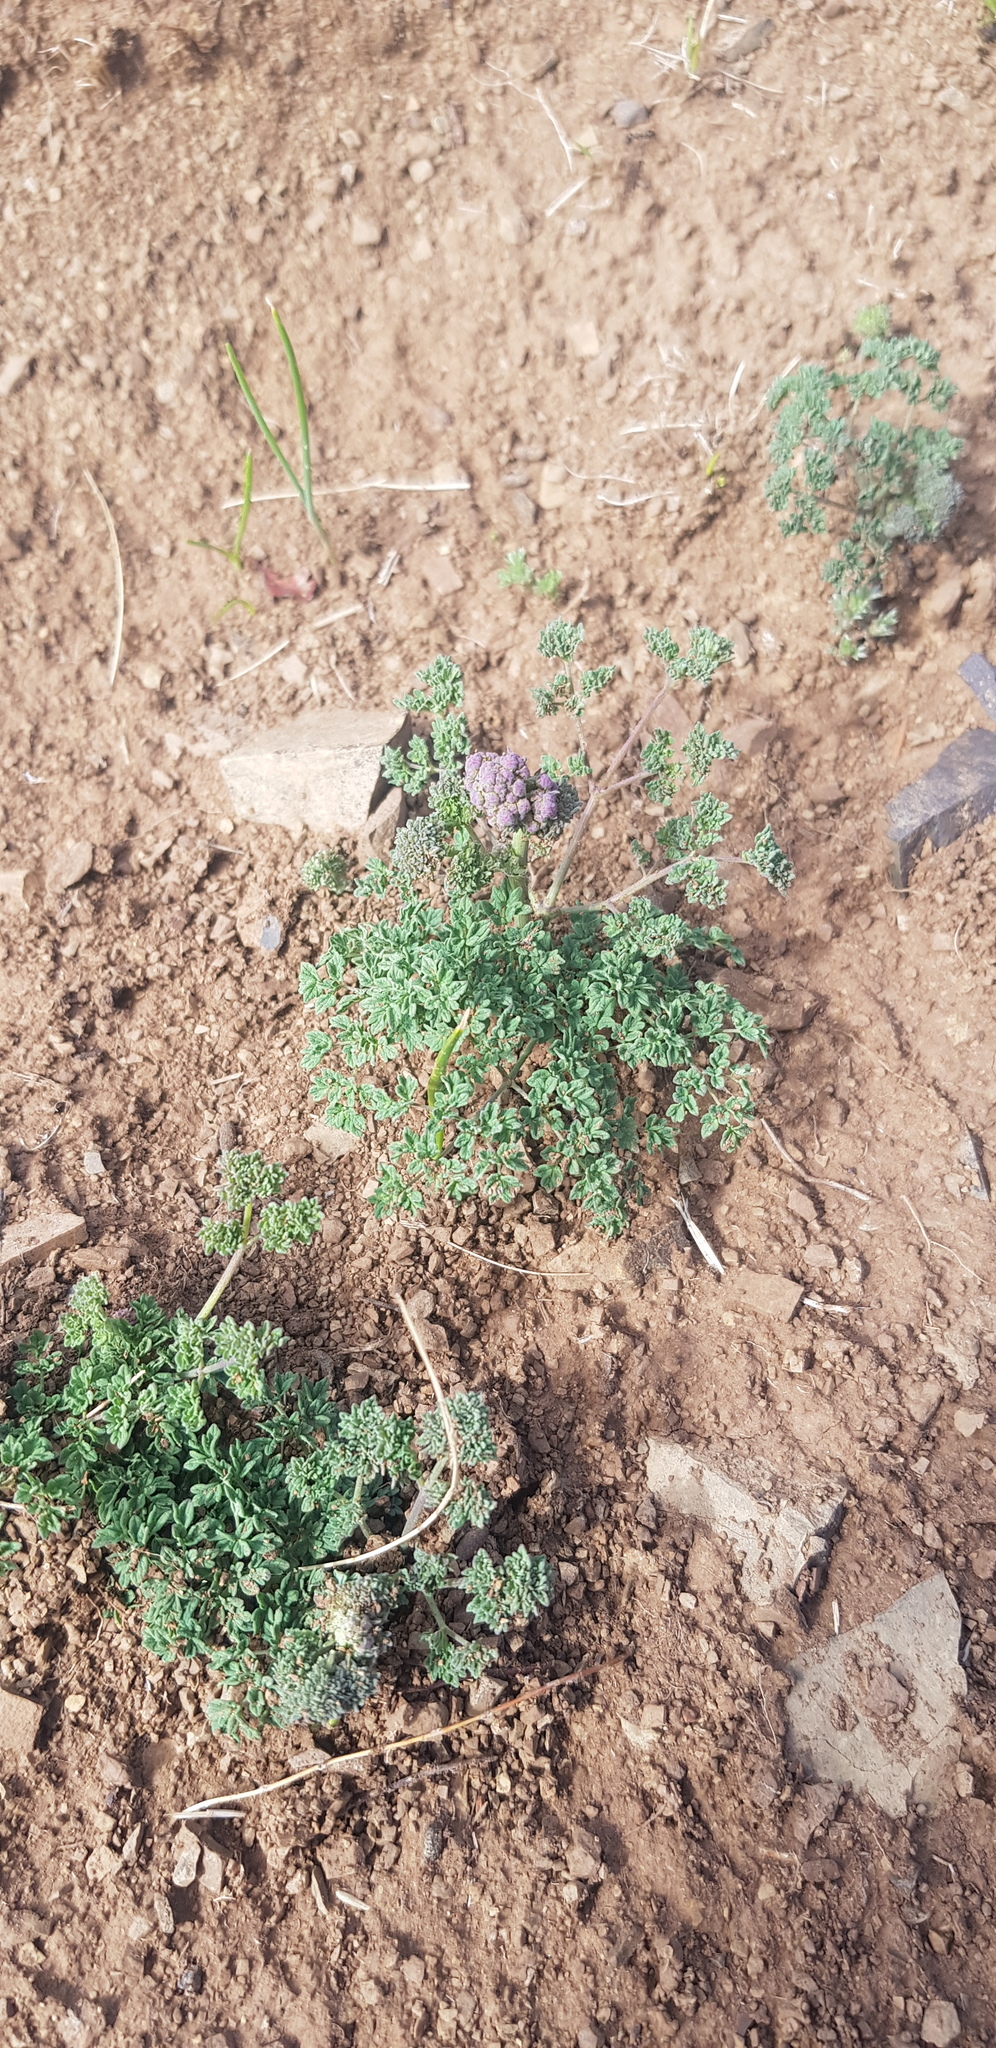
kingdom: Plantae
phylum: Tracheophyta
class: Magnoliopsida
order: Ranunculales
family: Ranunculaceae
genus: Thalictrum
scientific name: Thalictrum petaloideum
